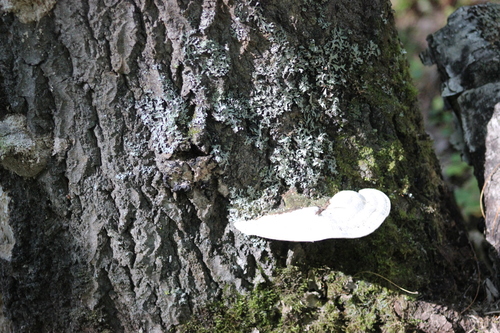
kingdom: Fungi
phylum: Basidiomycota
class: Agaricomycetes
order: Polyporales
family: Polyporaceae
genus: Trametes
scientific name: Trametes gibbosa
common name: Lumpy bracket
